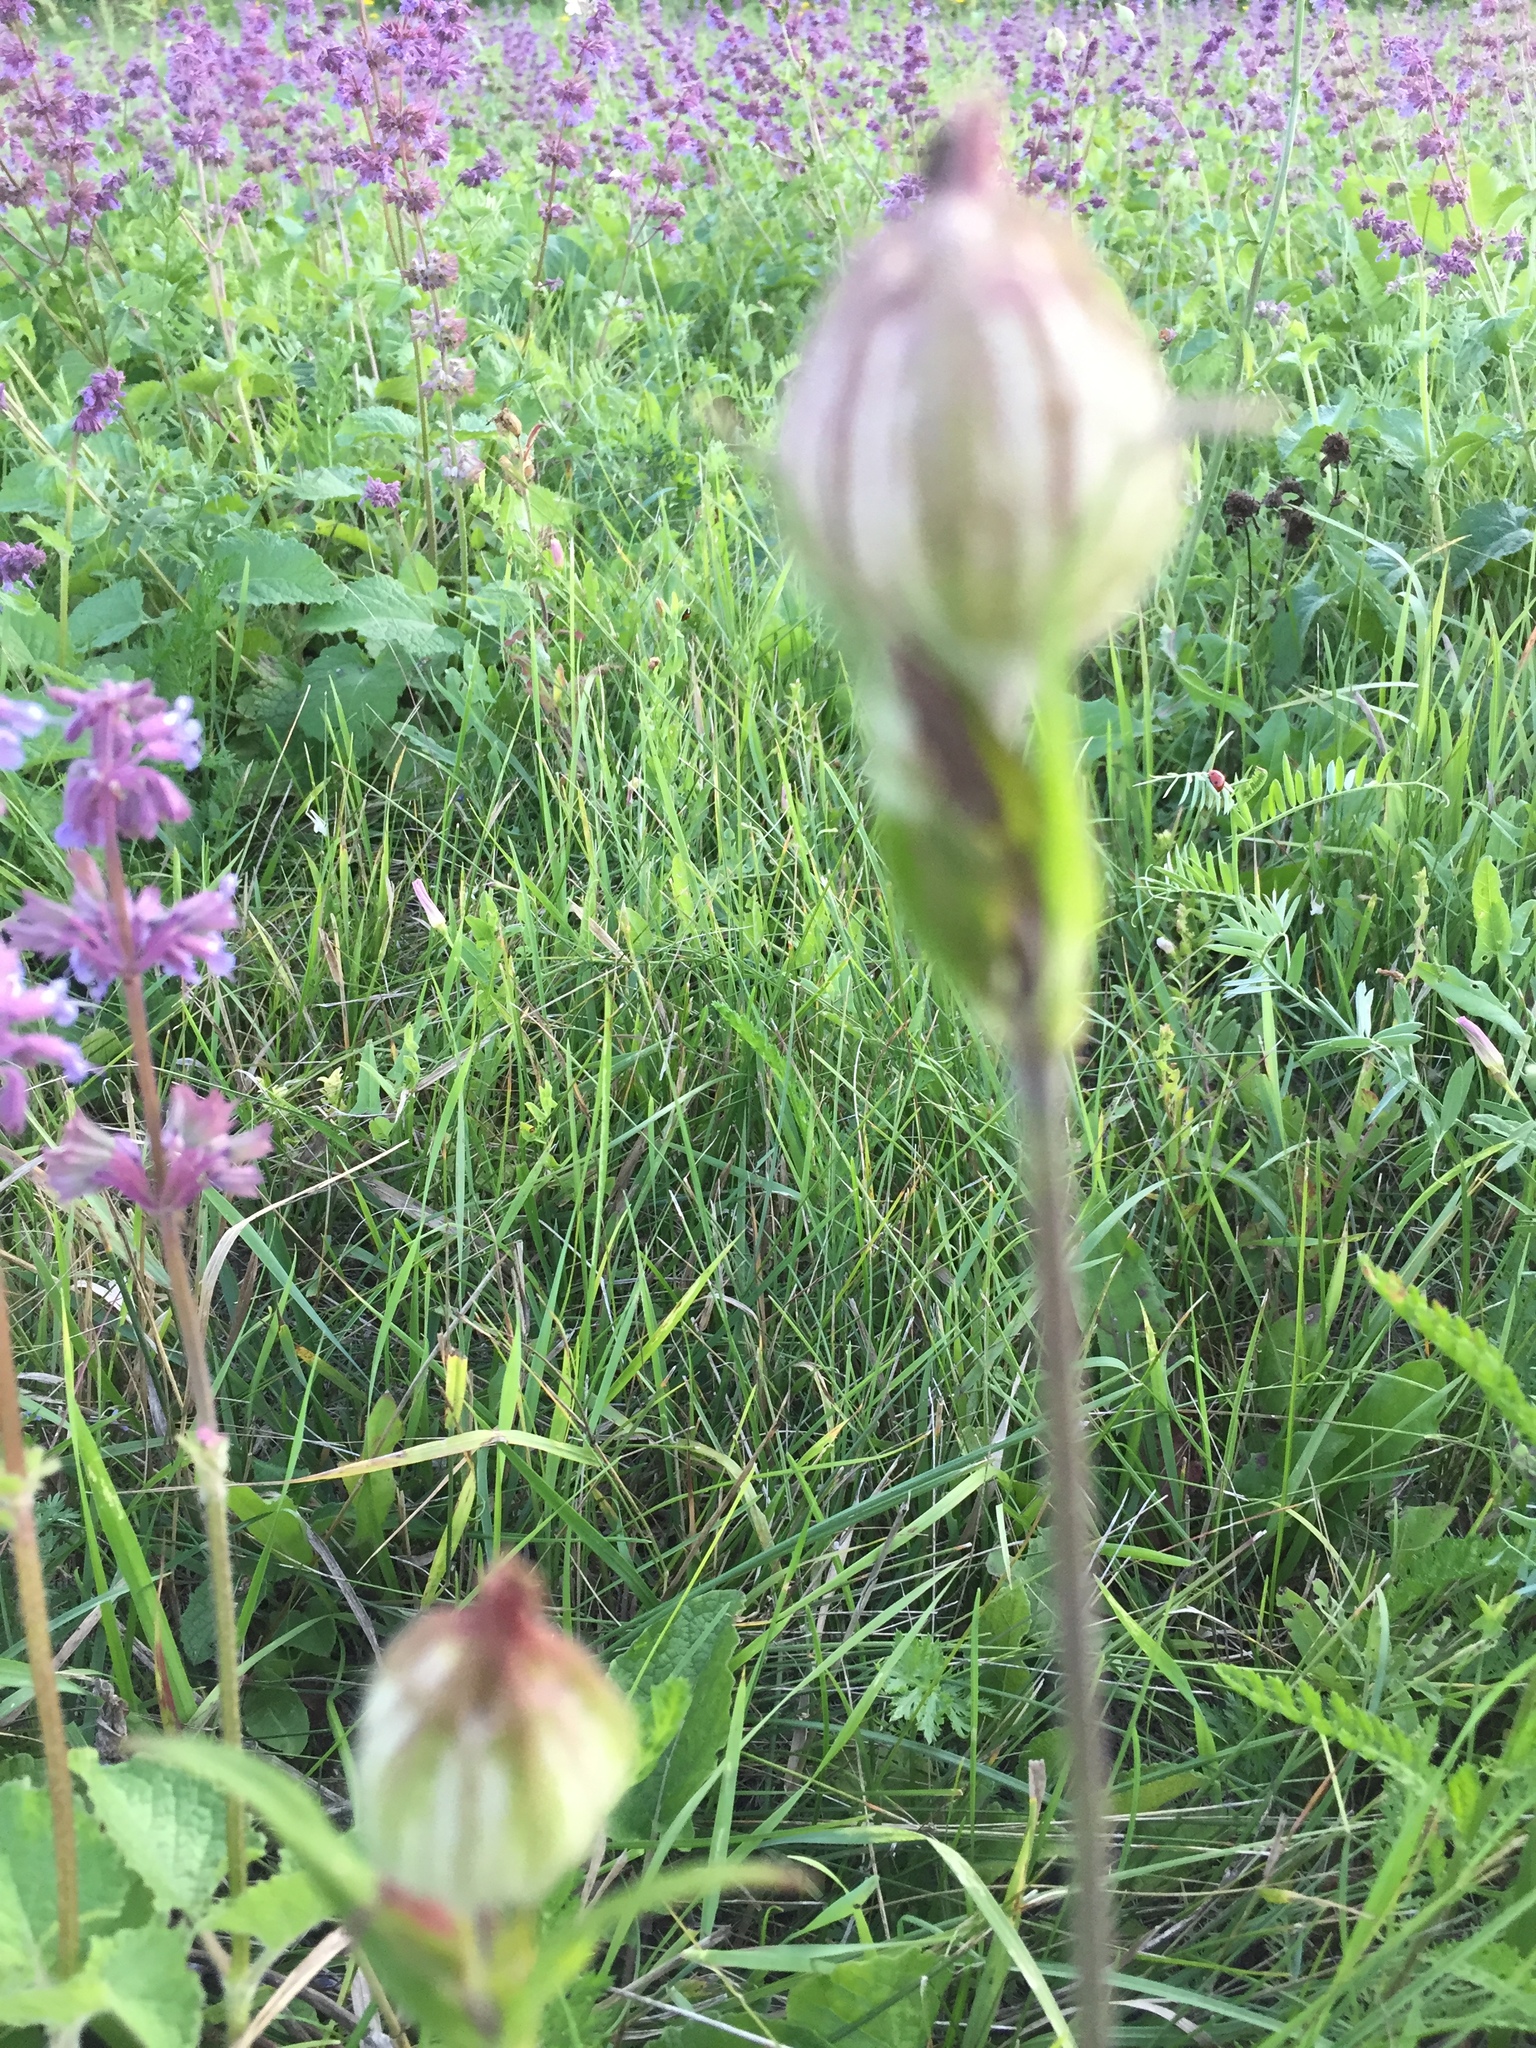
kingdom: Plantae
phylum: Tracheophyta
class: Magnoliopsida
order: Caryophyllales
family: Caryophyllaceae
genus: Silene
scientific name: Silene latifolia
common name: White campion
